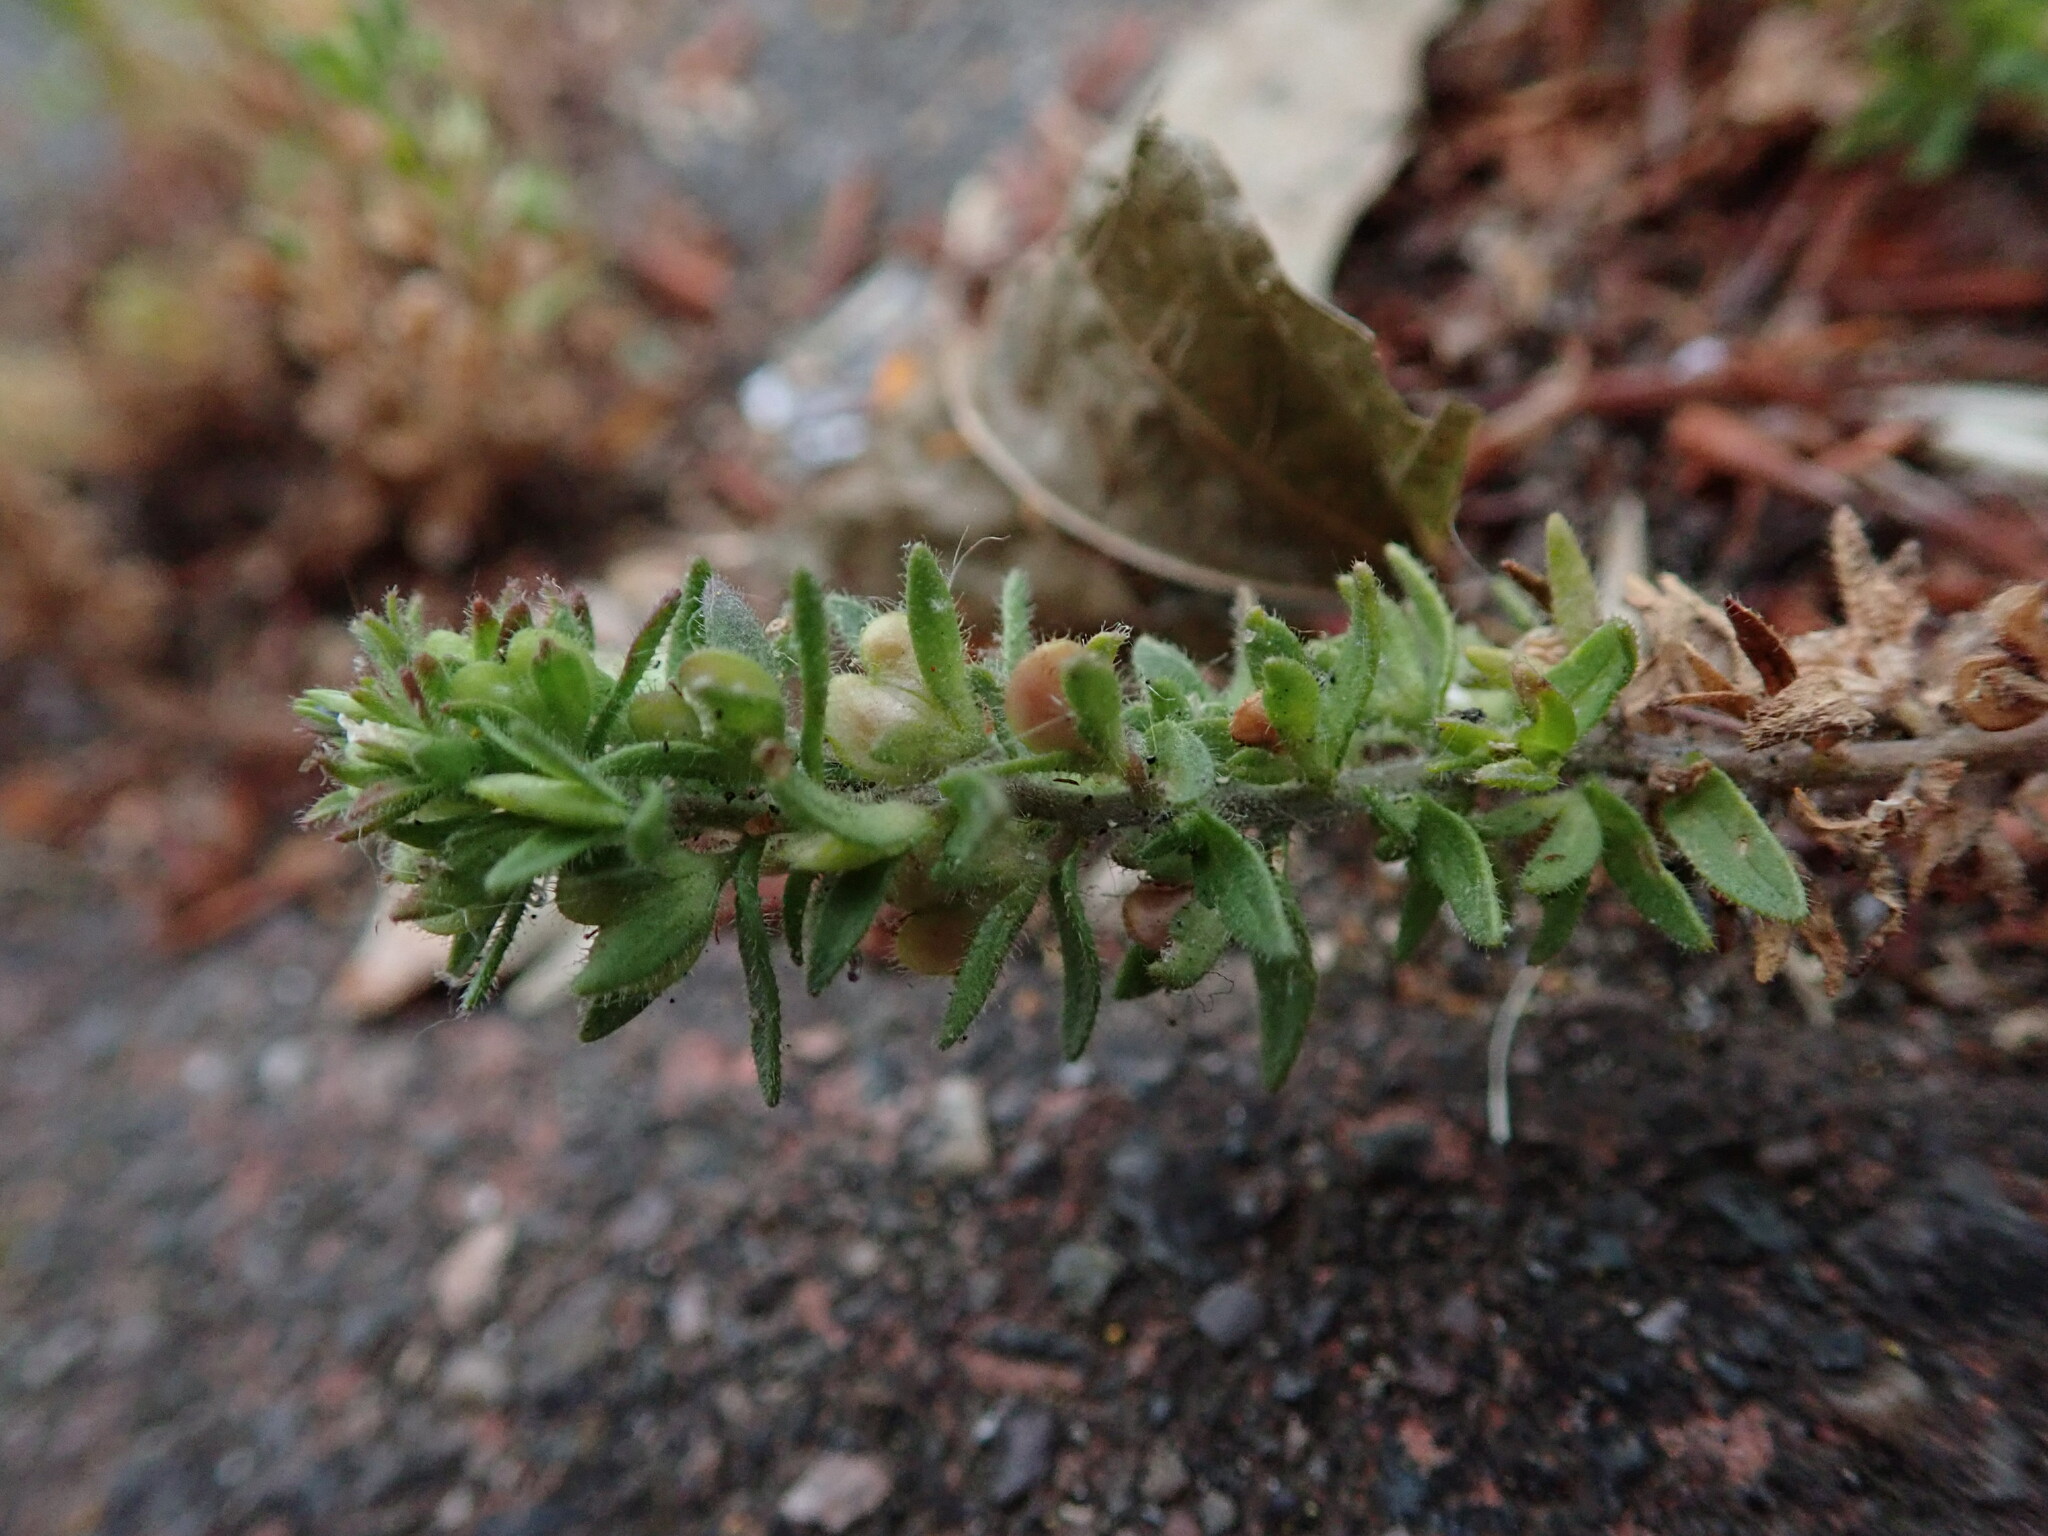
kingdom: Plantae
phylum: Tracheophyta
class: Magnoliopsida
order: Lamiales
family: Plantaginaceae
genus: Veronica
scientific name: Veronica arvensis
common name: Corn speedwell
